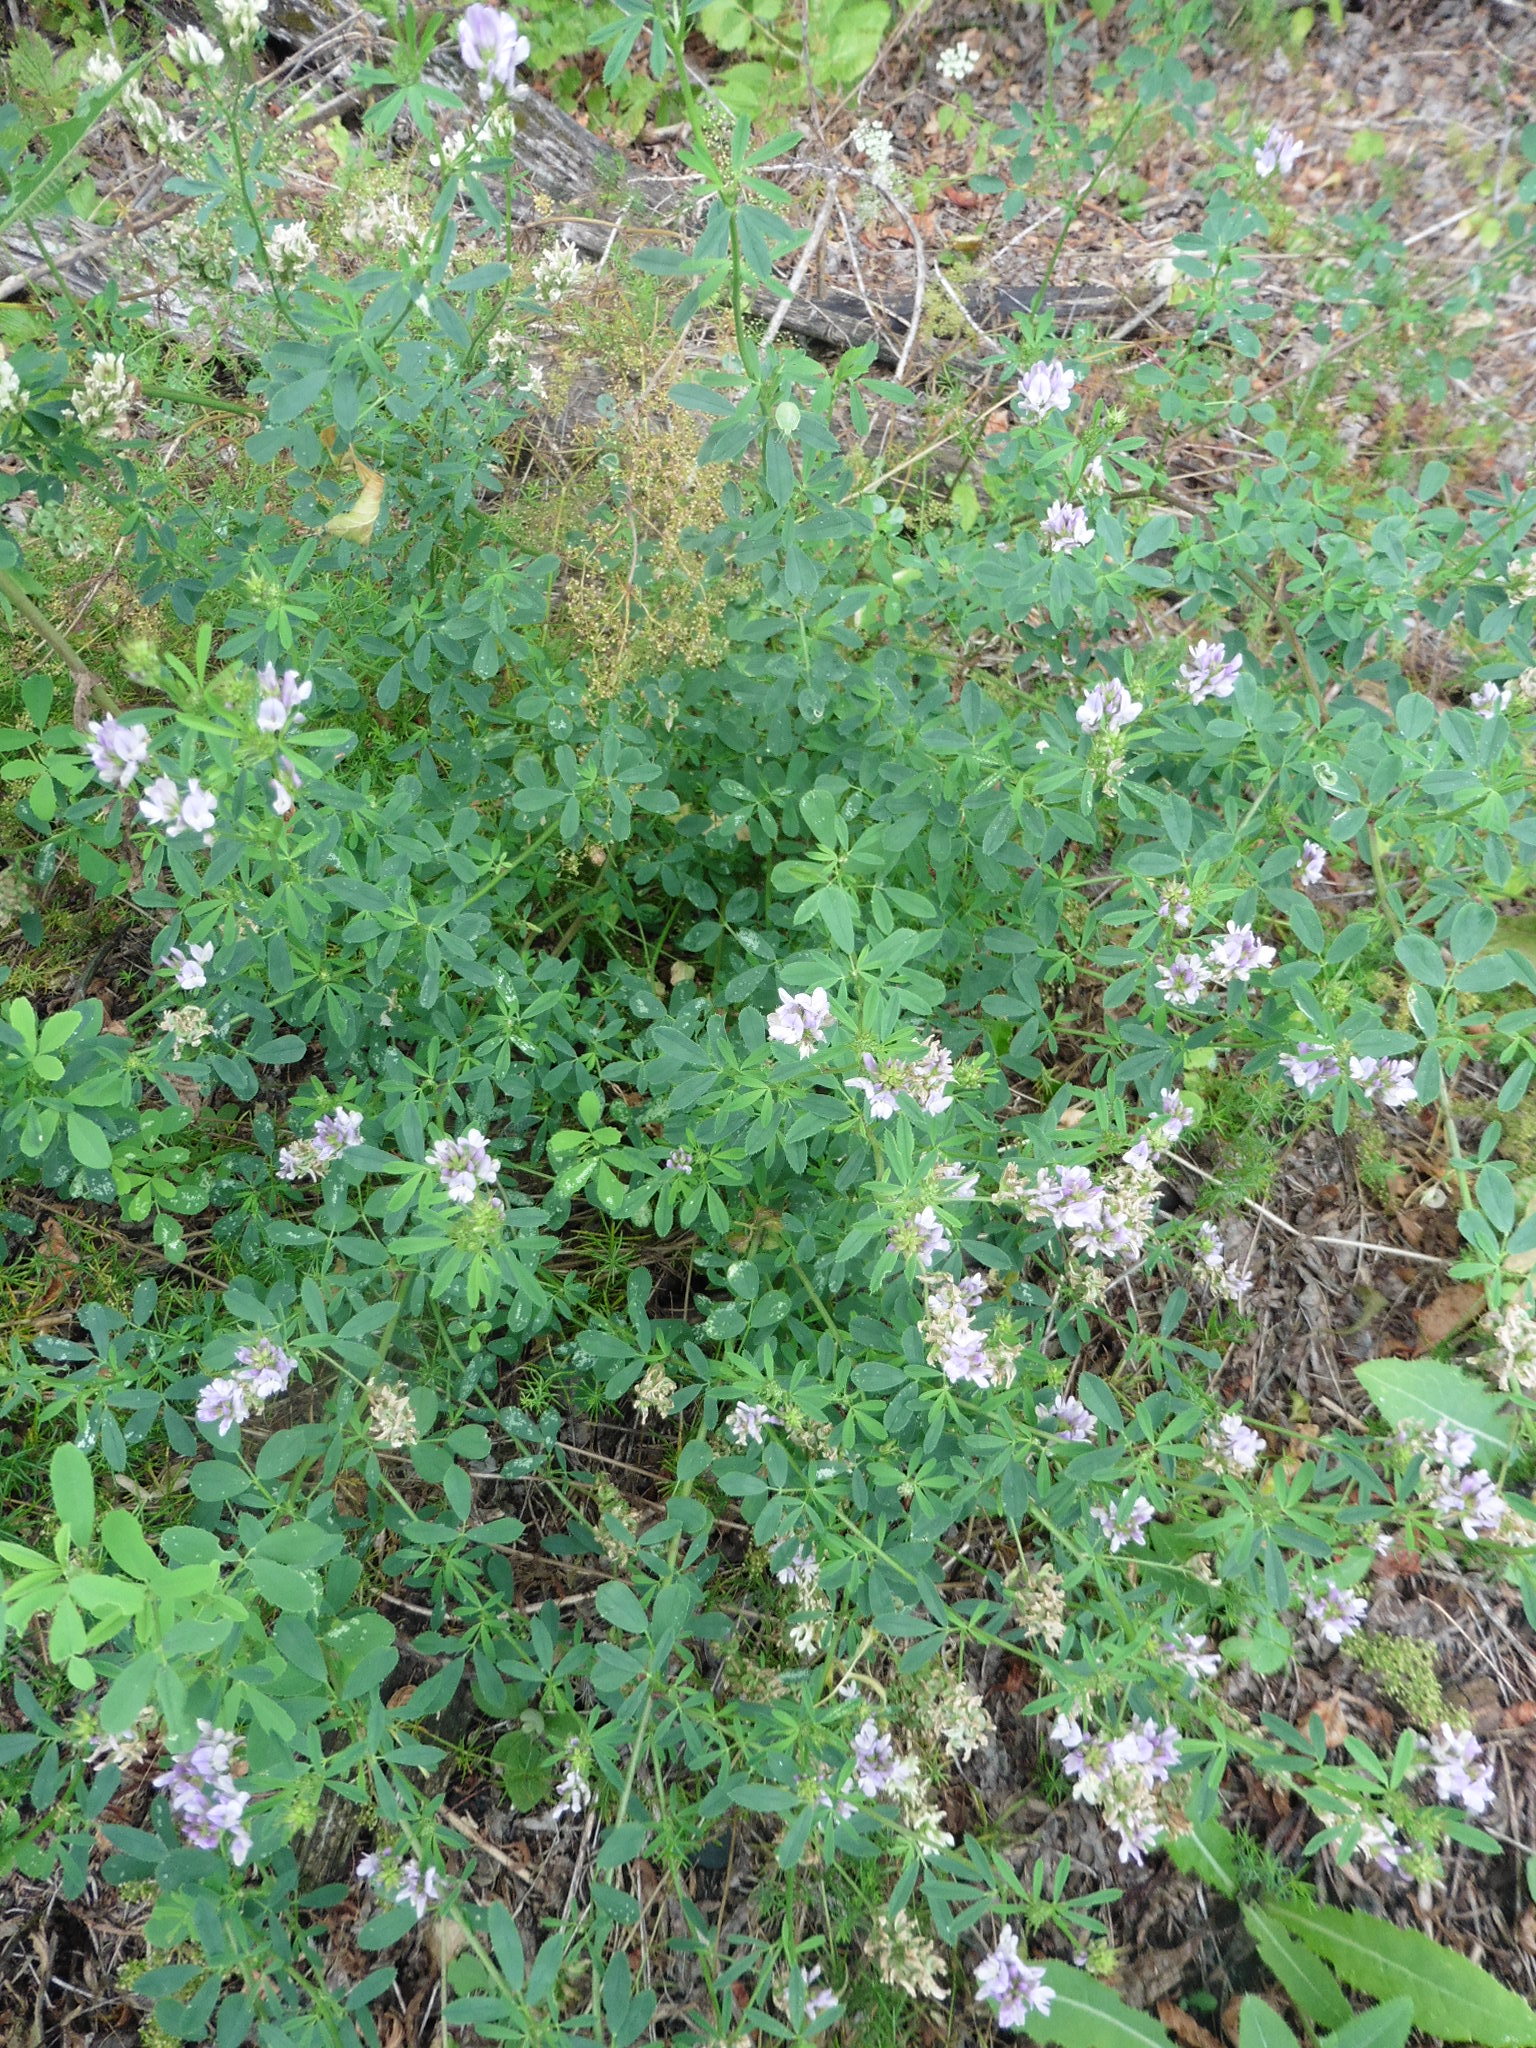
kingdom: Plantae
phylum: Tracheophyta
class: Magnoliopsida
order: Fabales
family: Fabaceae
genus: Medicago
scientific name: Medicago sativa
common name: Alfalfa
